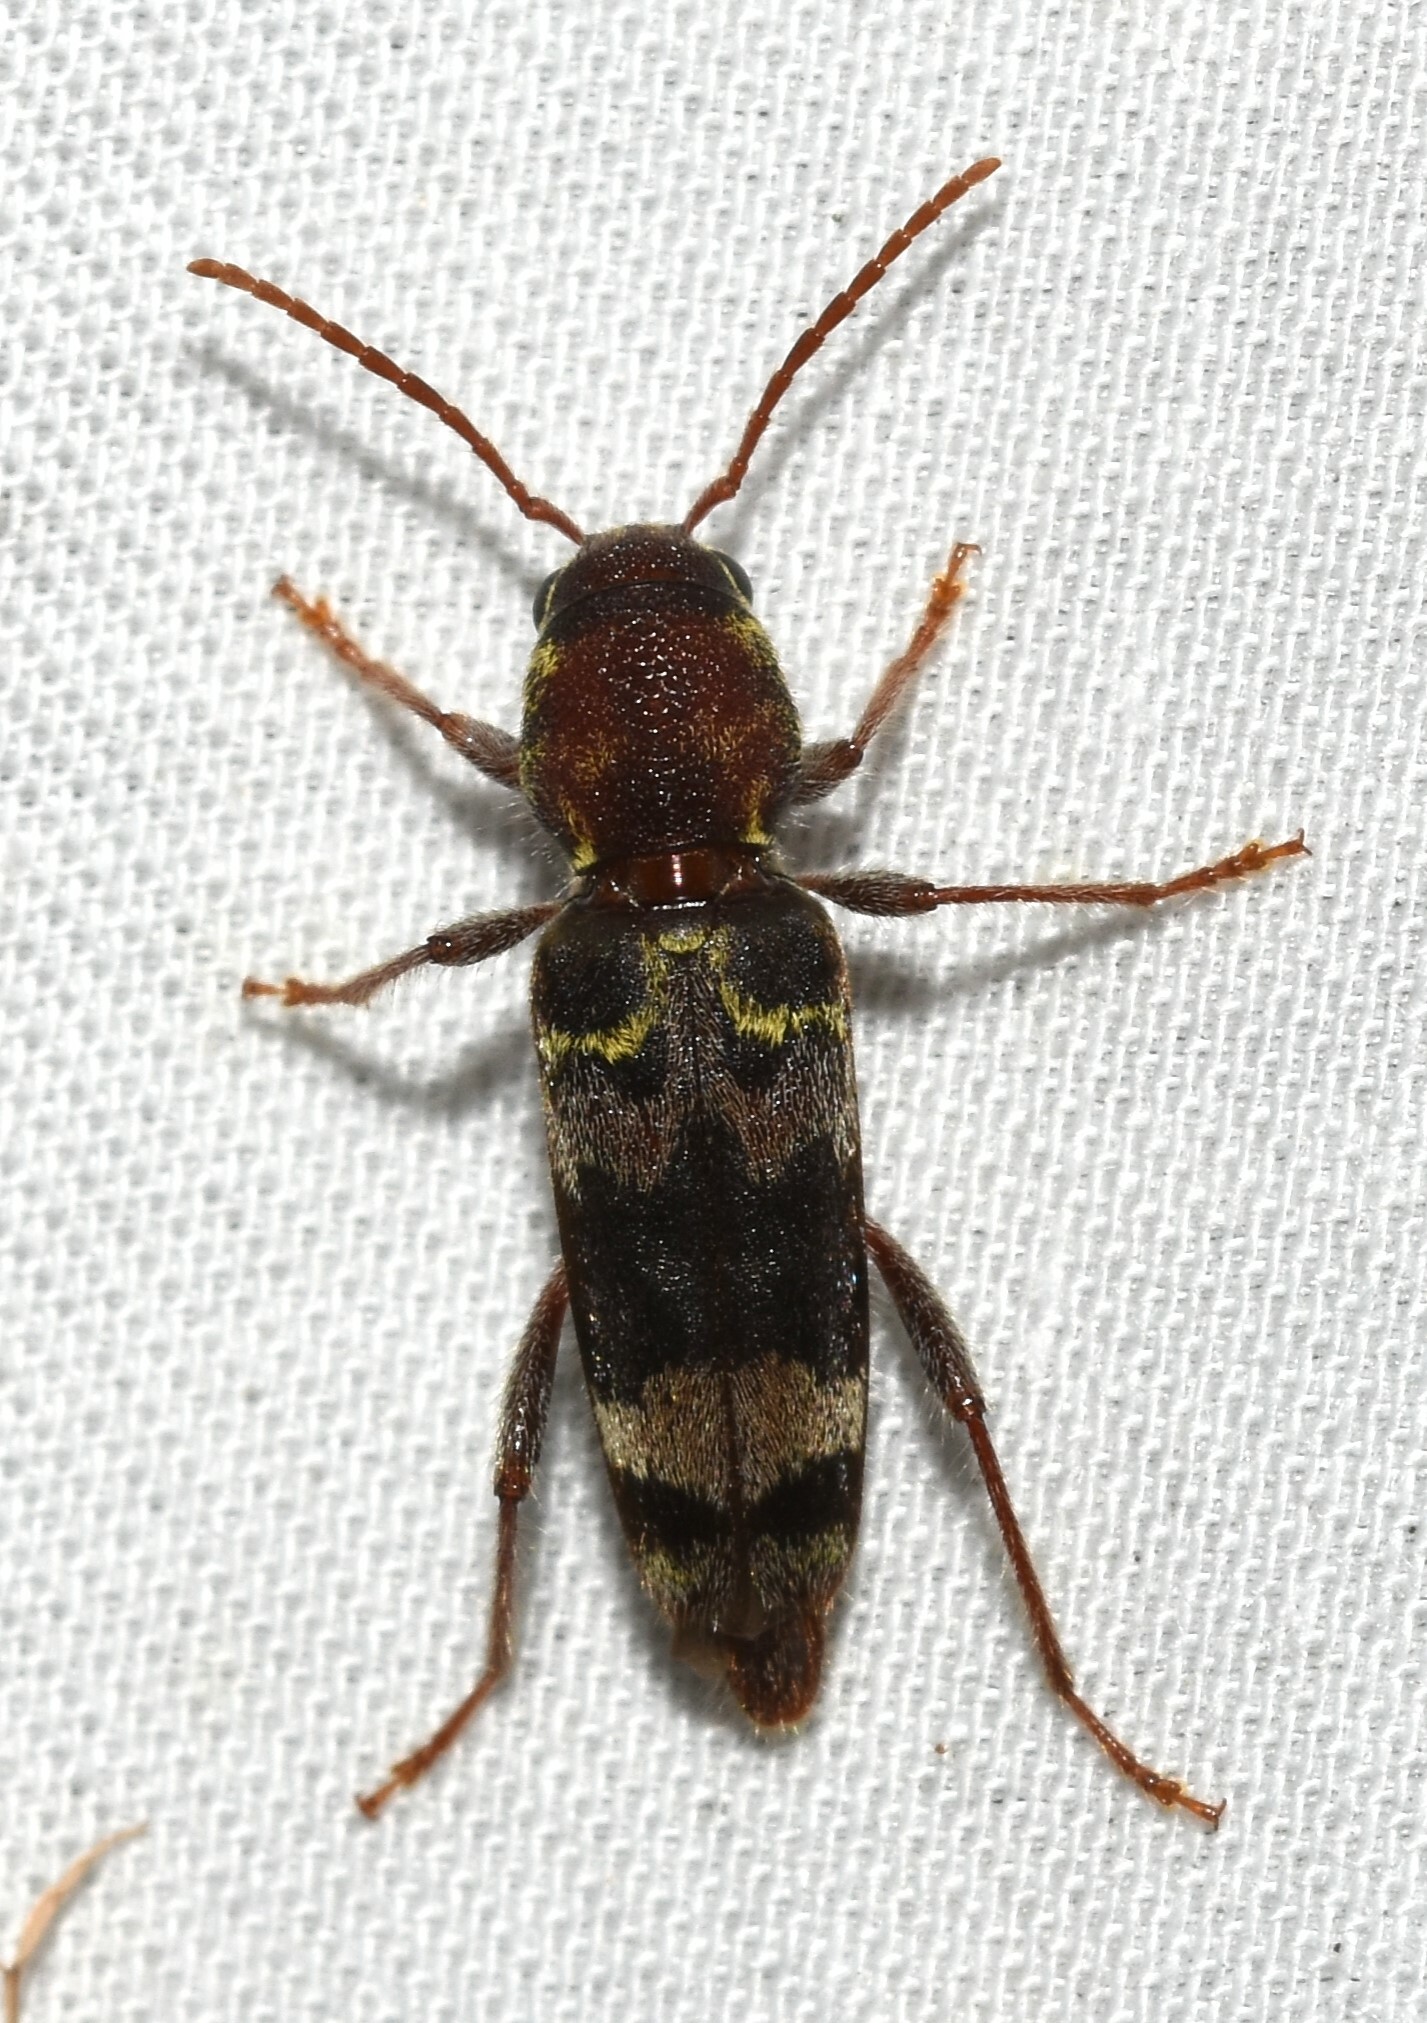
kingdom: Animalia
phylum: Arthropoda
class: Insecta
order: Coleoptera
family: Cerambycidae
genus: Xylotrechus
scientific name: Xylotrechus colonus
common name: Long-horned beetle
